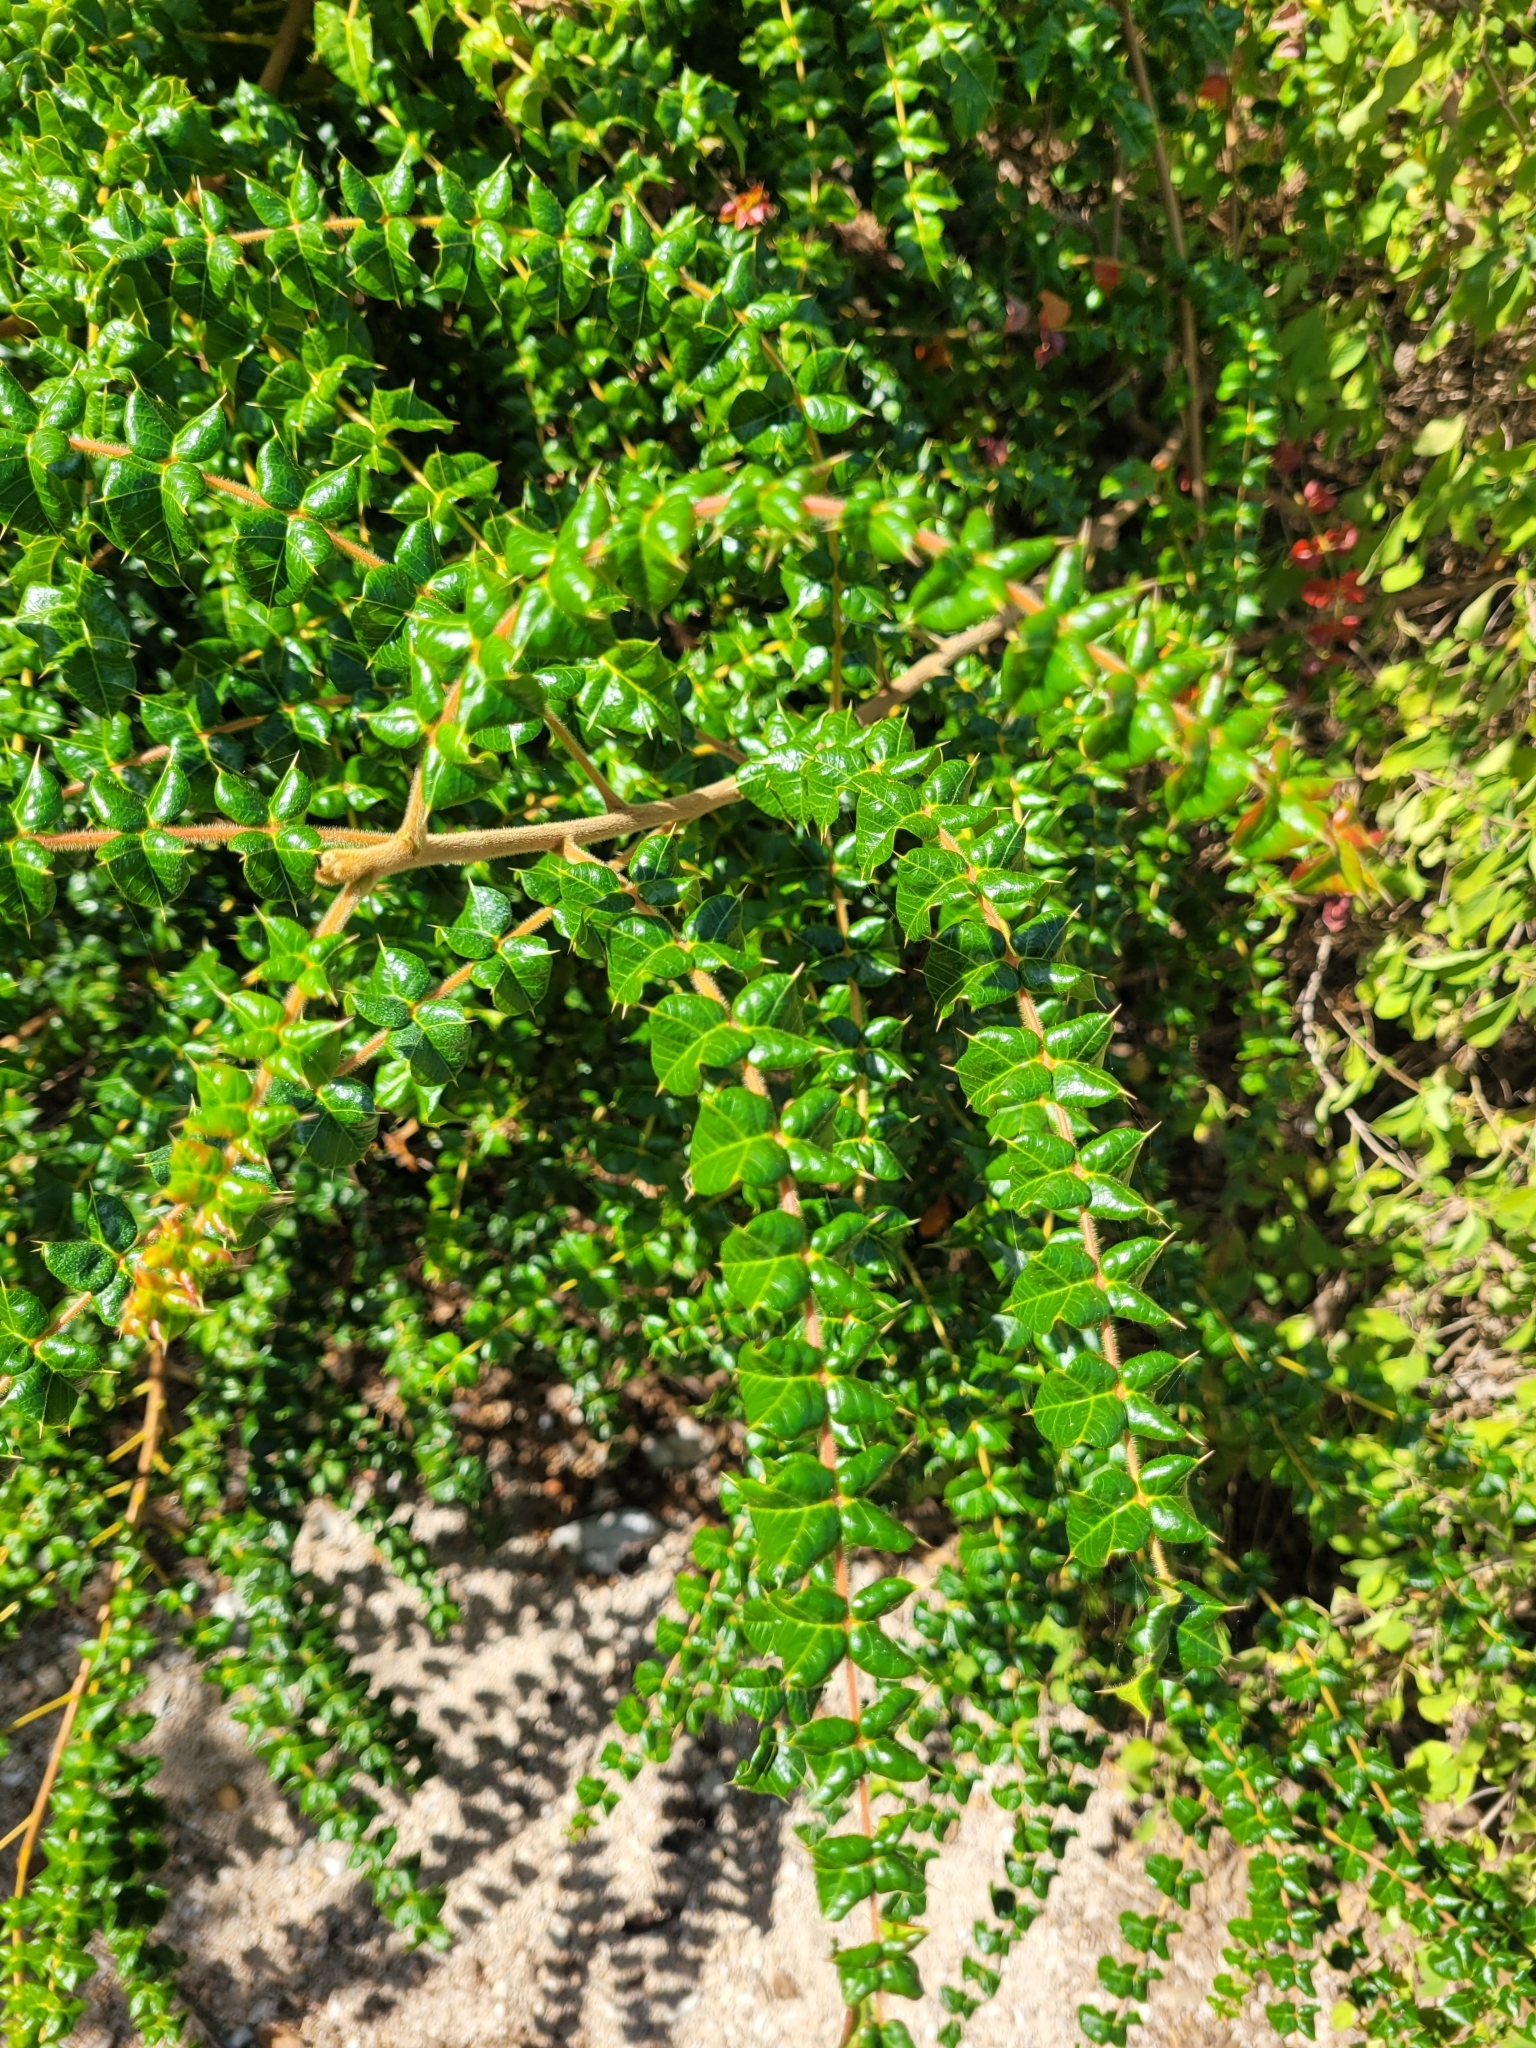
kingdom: Plantae
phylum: Tracheophyta
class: Magnoliopsida
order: Sapindales
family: Anacardiaceae
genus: Comocladia
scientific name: Comocladia dodonaea
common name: Poison ash
